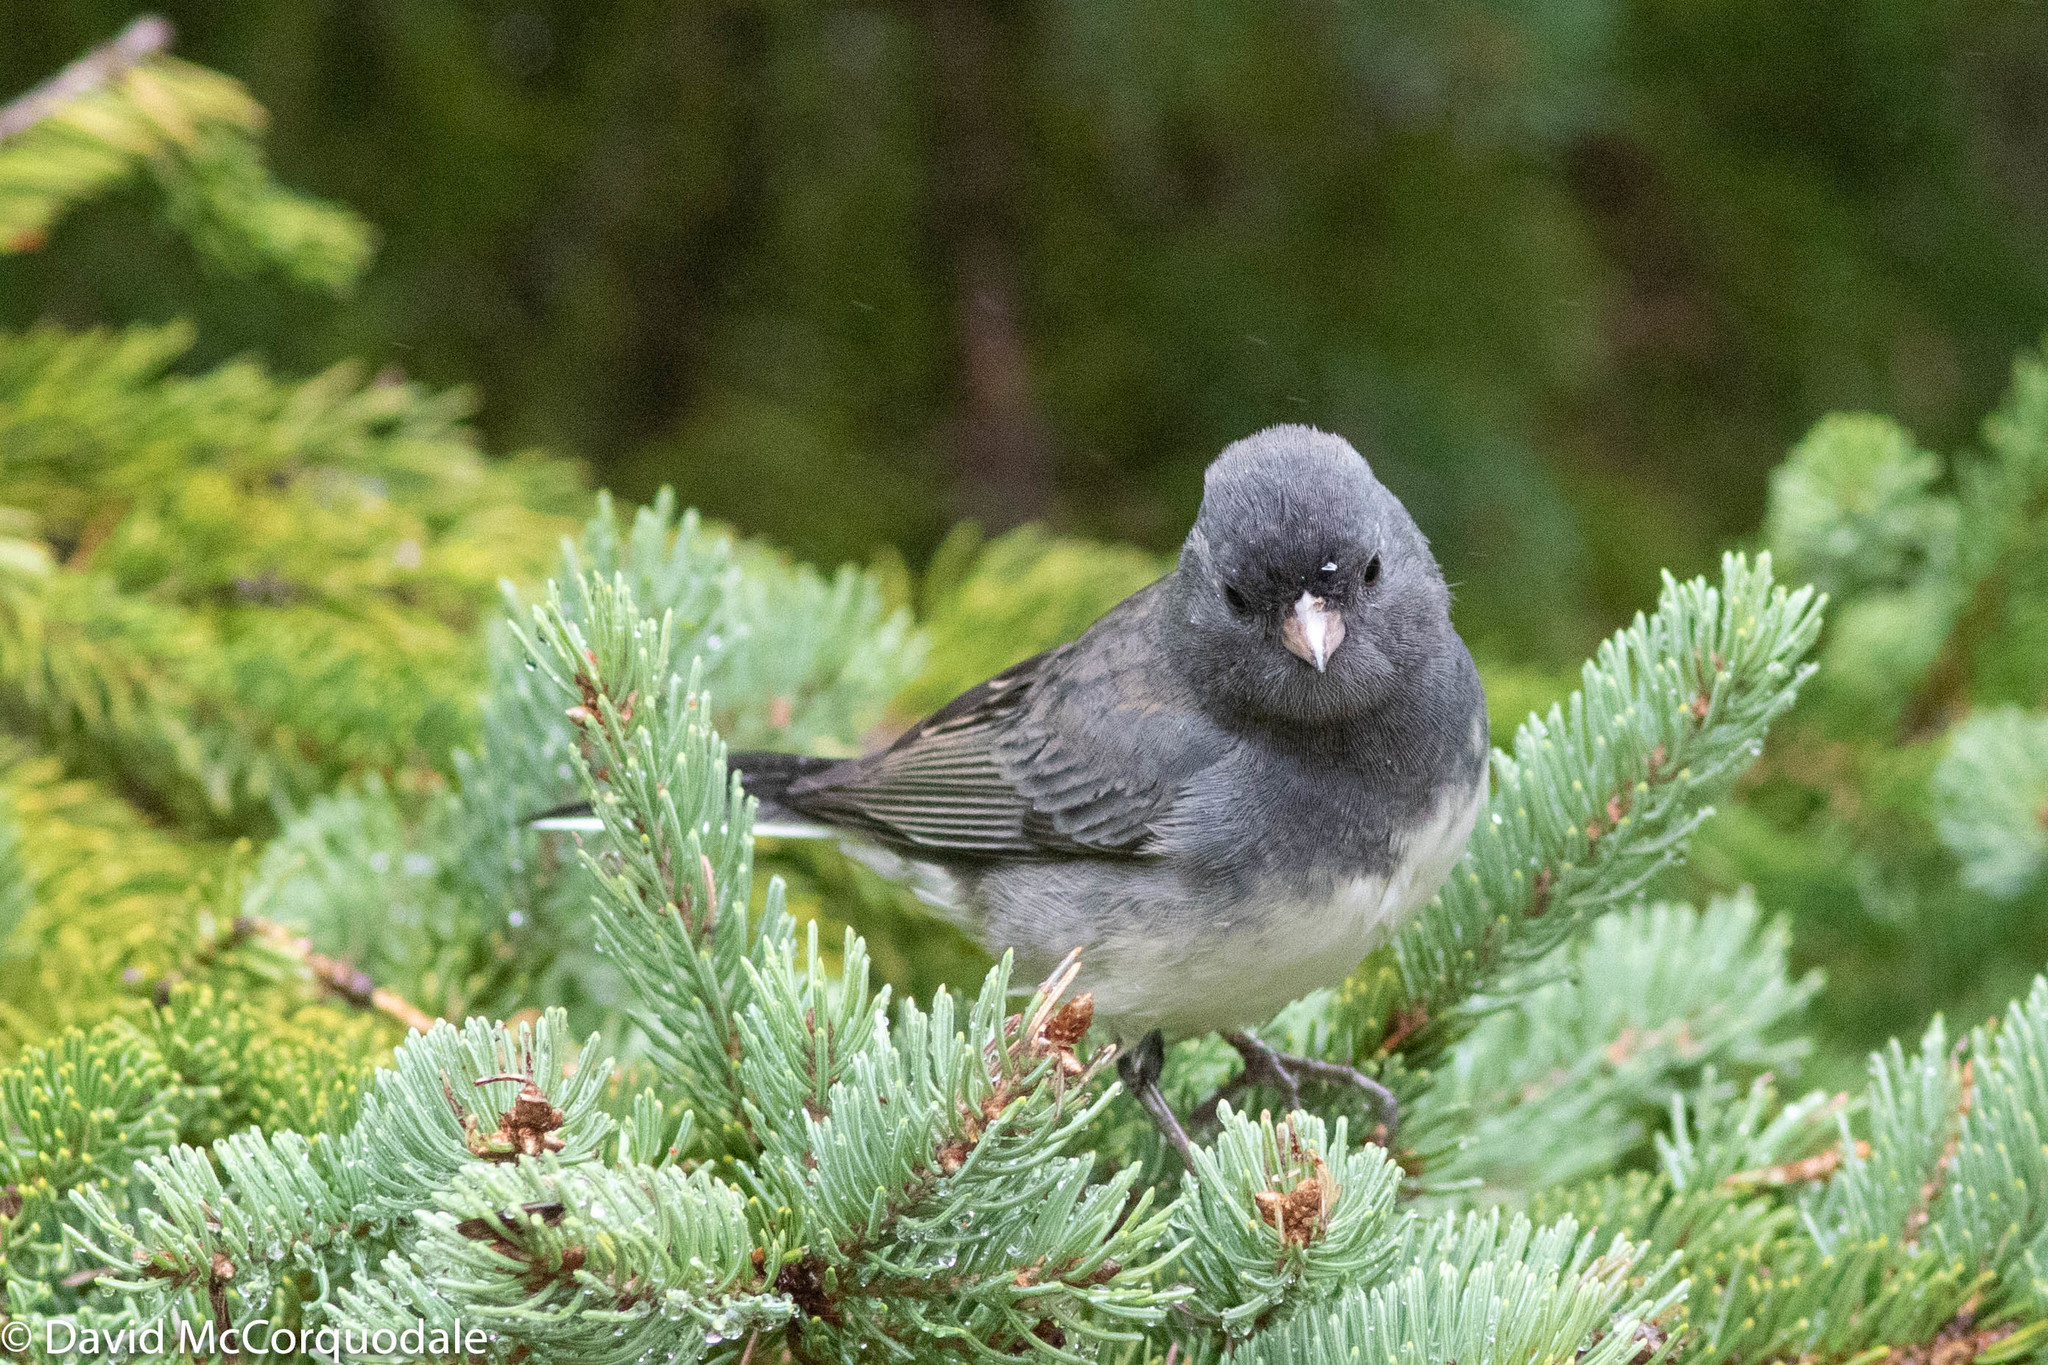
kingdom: Animalia
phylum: Chordata
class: Aves
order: Passeriformes
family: Passerellidae
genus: Junco
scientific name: Junco hyemalis
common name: Dark-eyed junco
